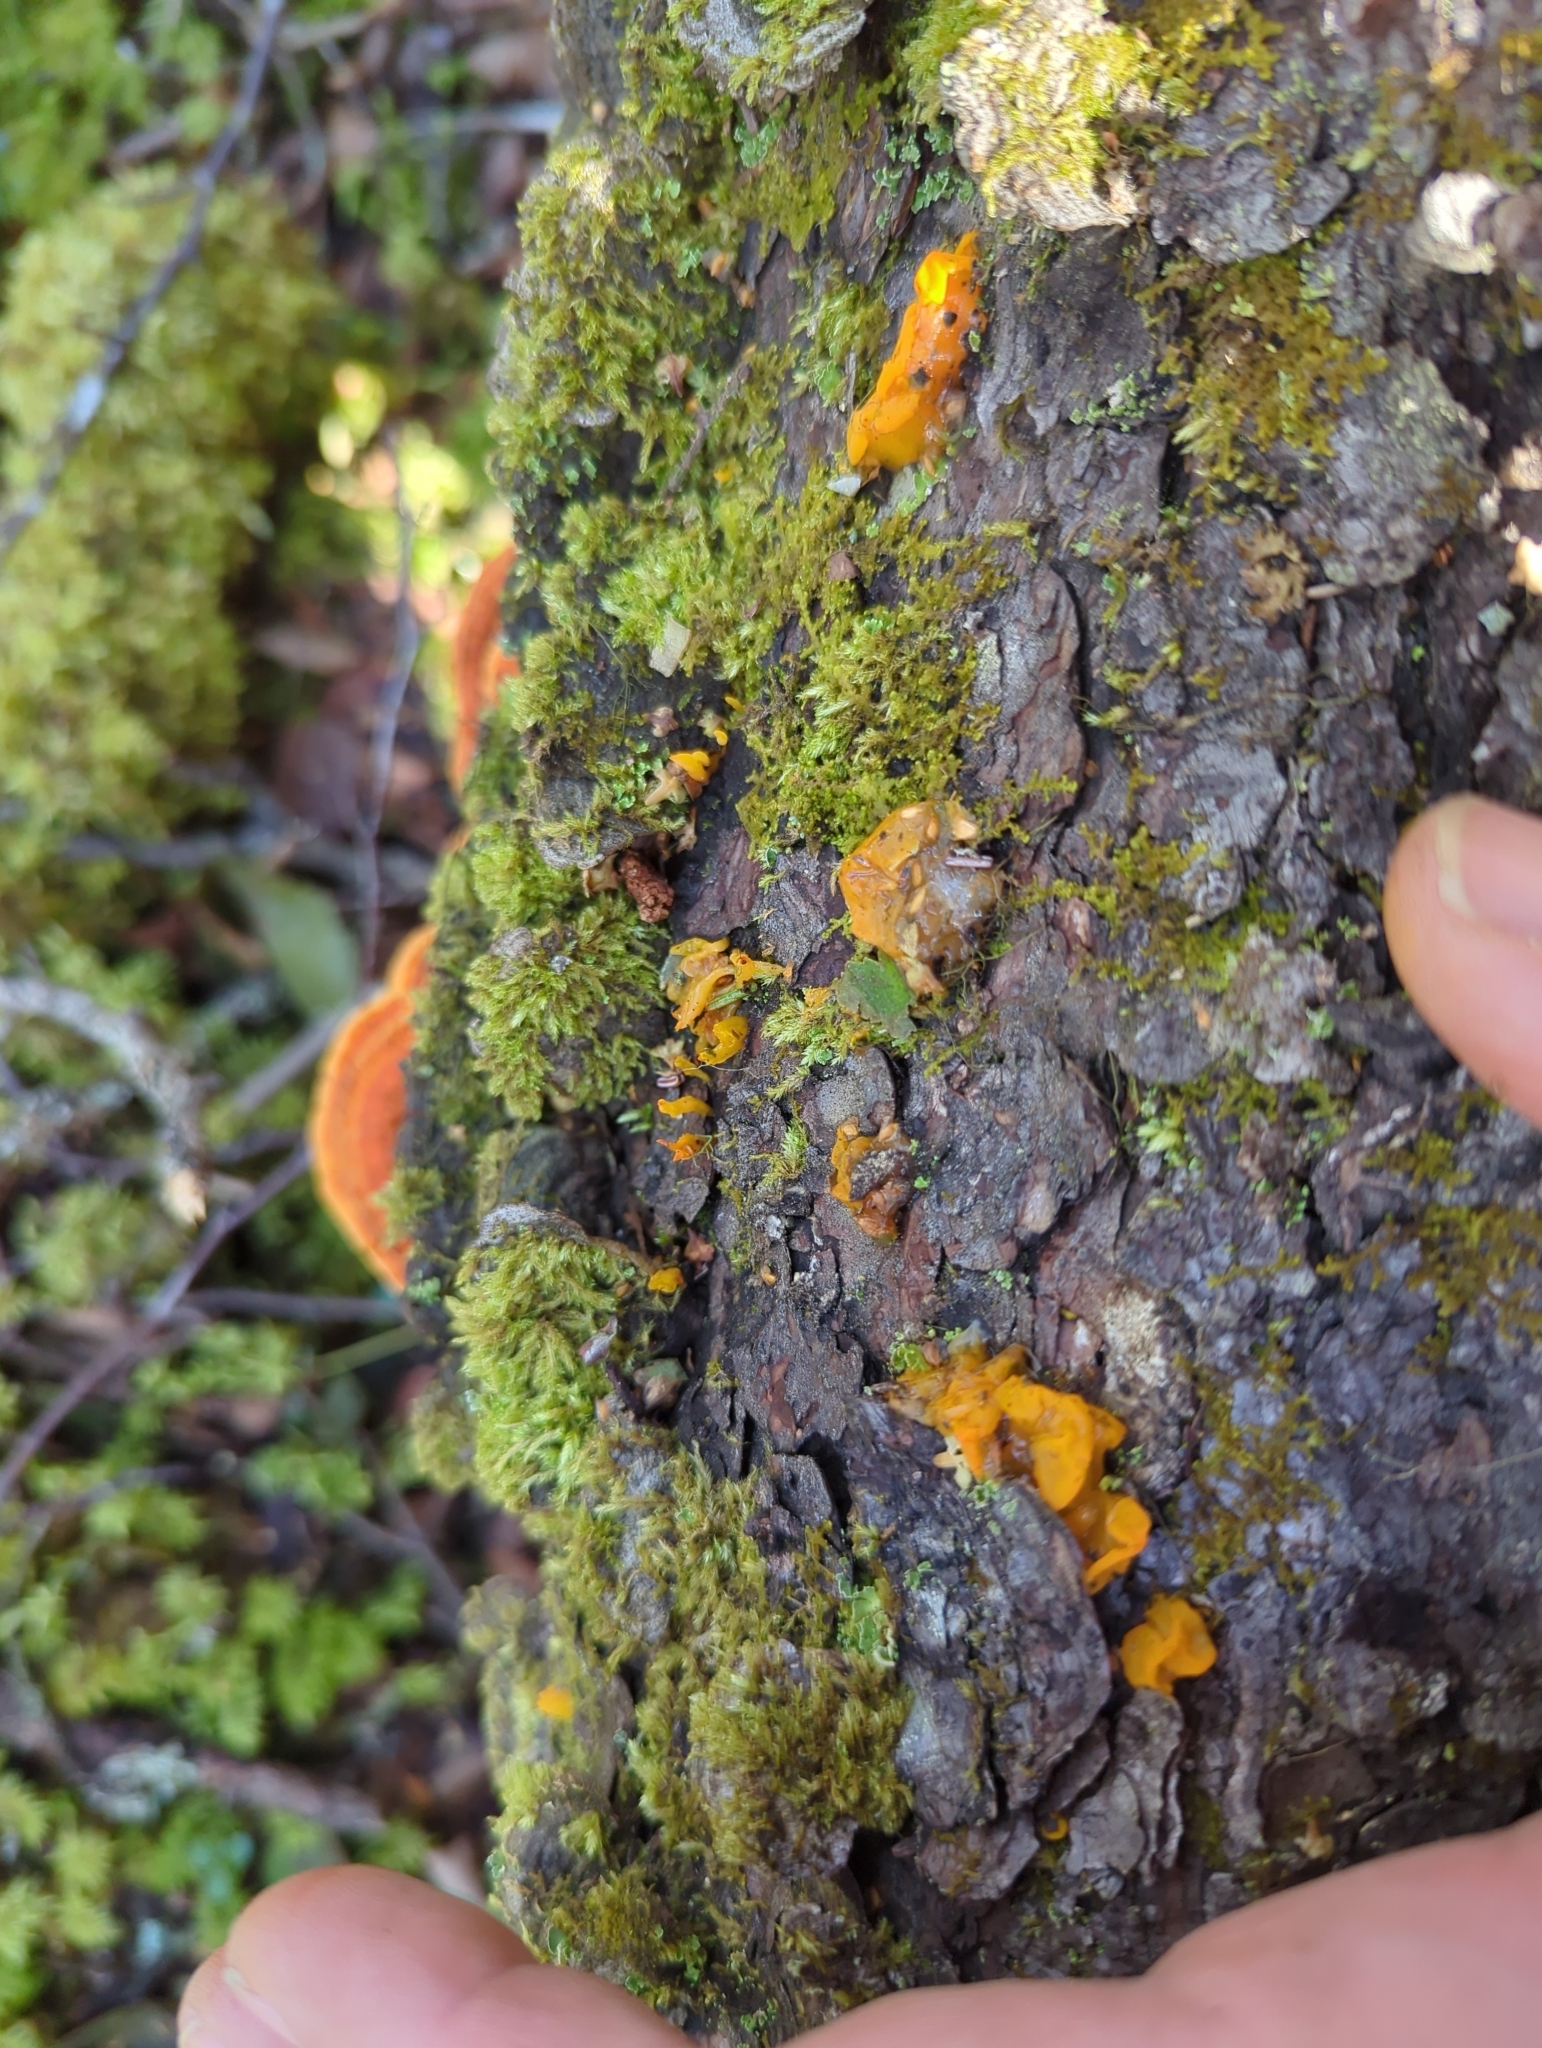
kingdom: Fungi
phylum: Basidiomycota
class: Dacrymycetes
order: Dacrymycetales
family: Dacrymycetaceae
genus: Dacrymyces
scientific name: Dacrymyces chrysospermus
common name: Orange jelly spot
